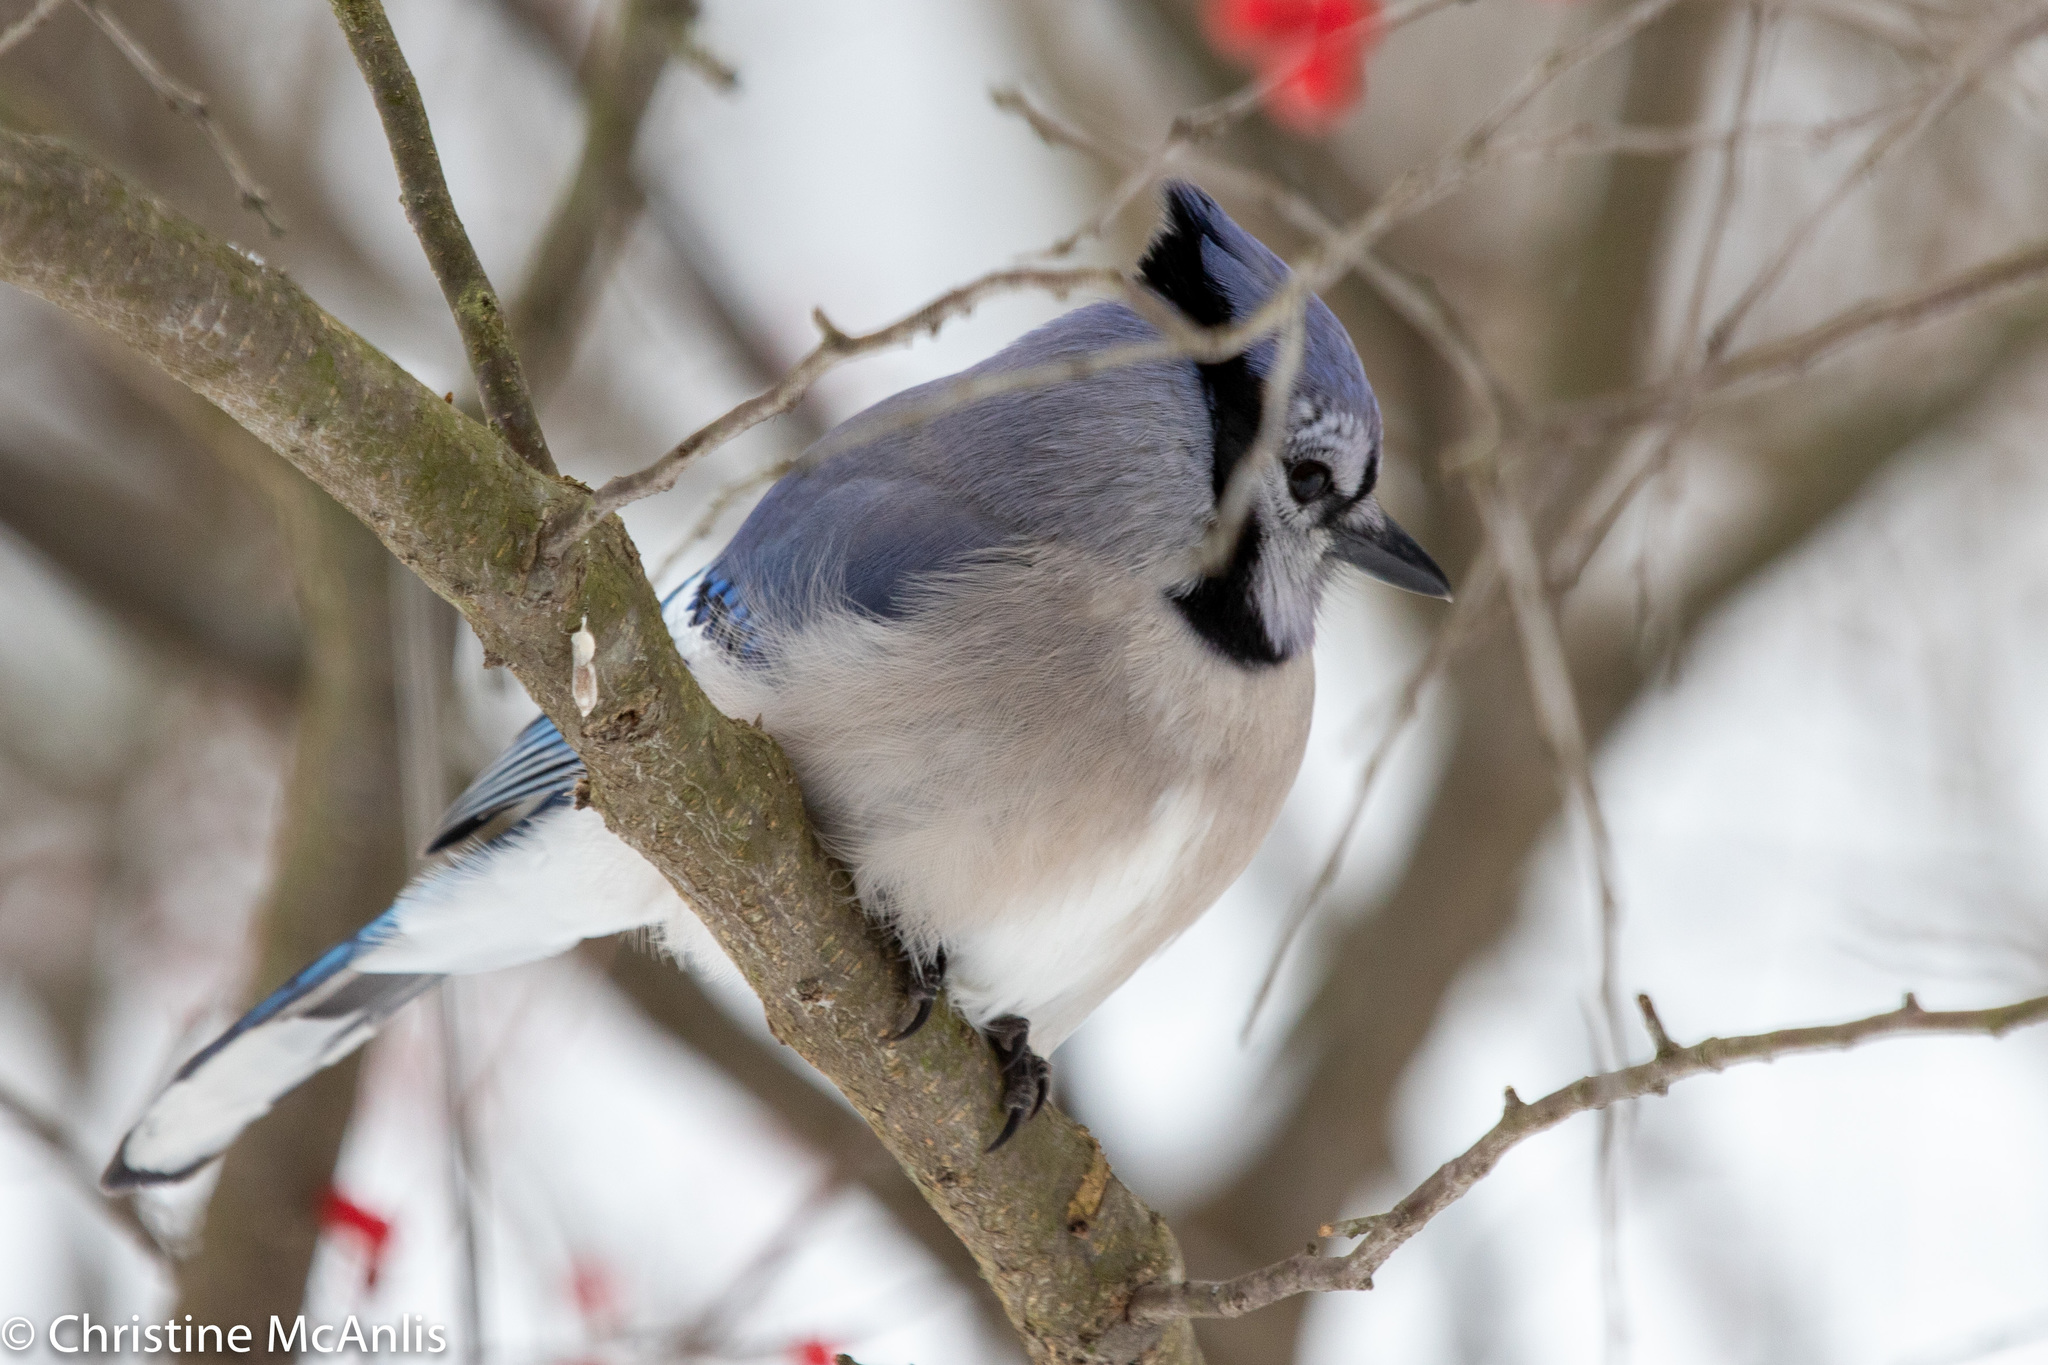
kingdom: Animalia
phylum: Chordata
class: Aves
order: Passeriformes
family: Corvidae
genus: Cyanocitta
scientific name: Cyanocitta cristata
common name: Blue jay
